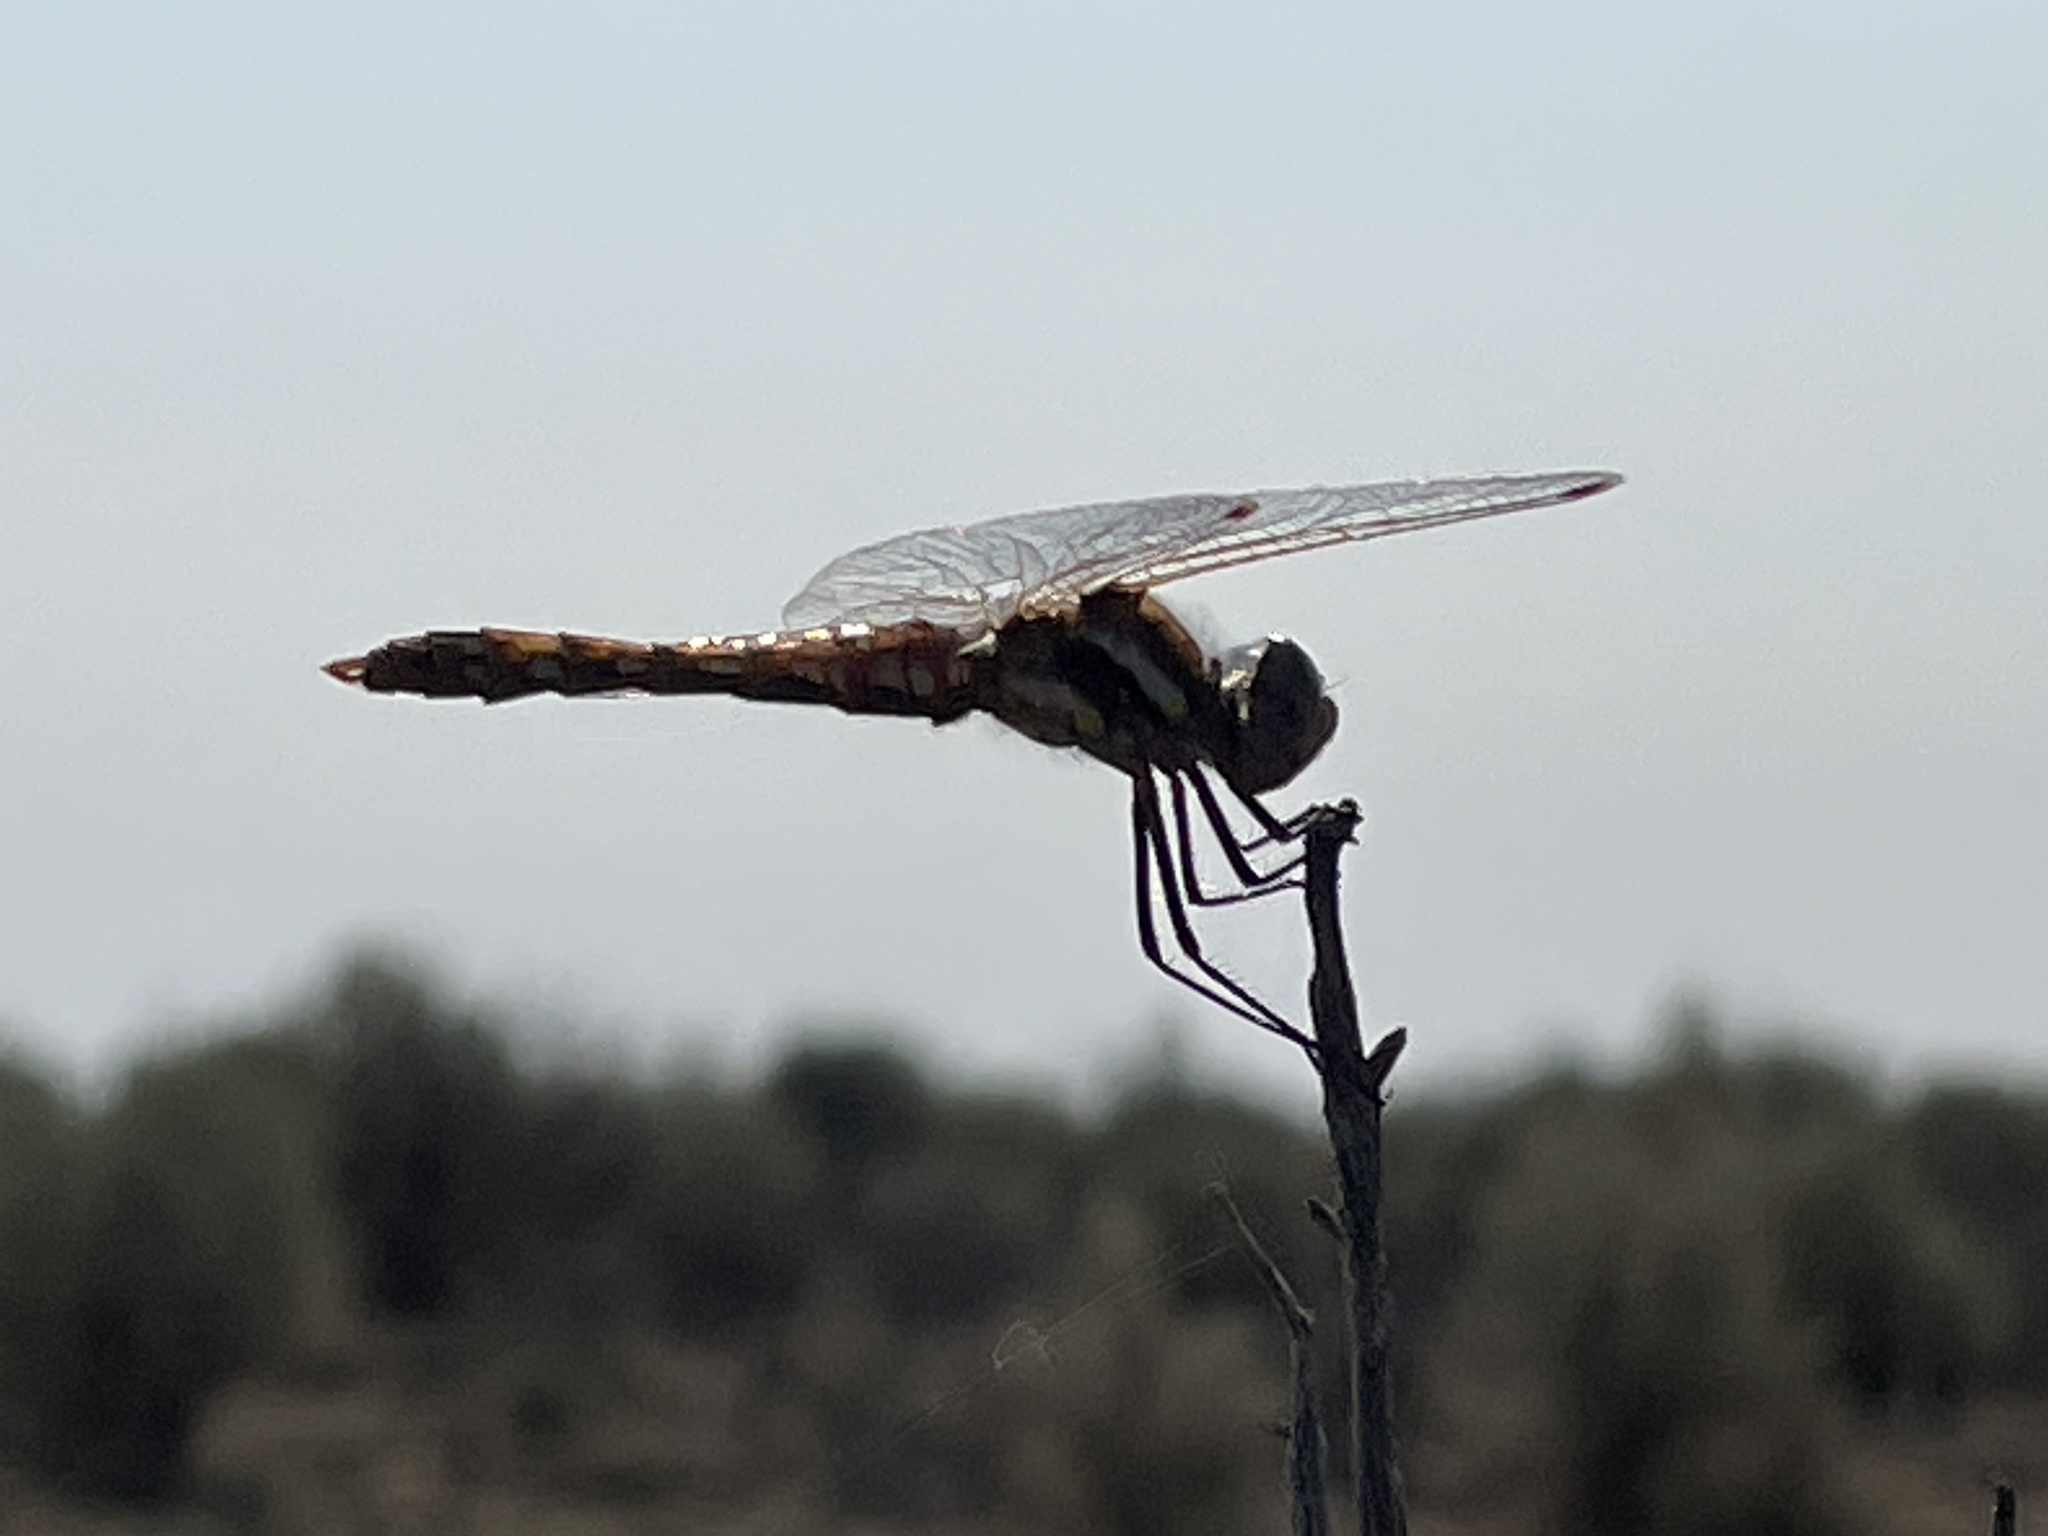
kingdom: Animalia
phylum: Arthropoda
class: Insecta
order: Odonata
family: Libellulidae
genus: Sympetrum
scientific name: Sympetrum corruptum
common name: Variegated meadowhawk
